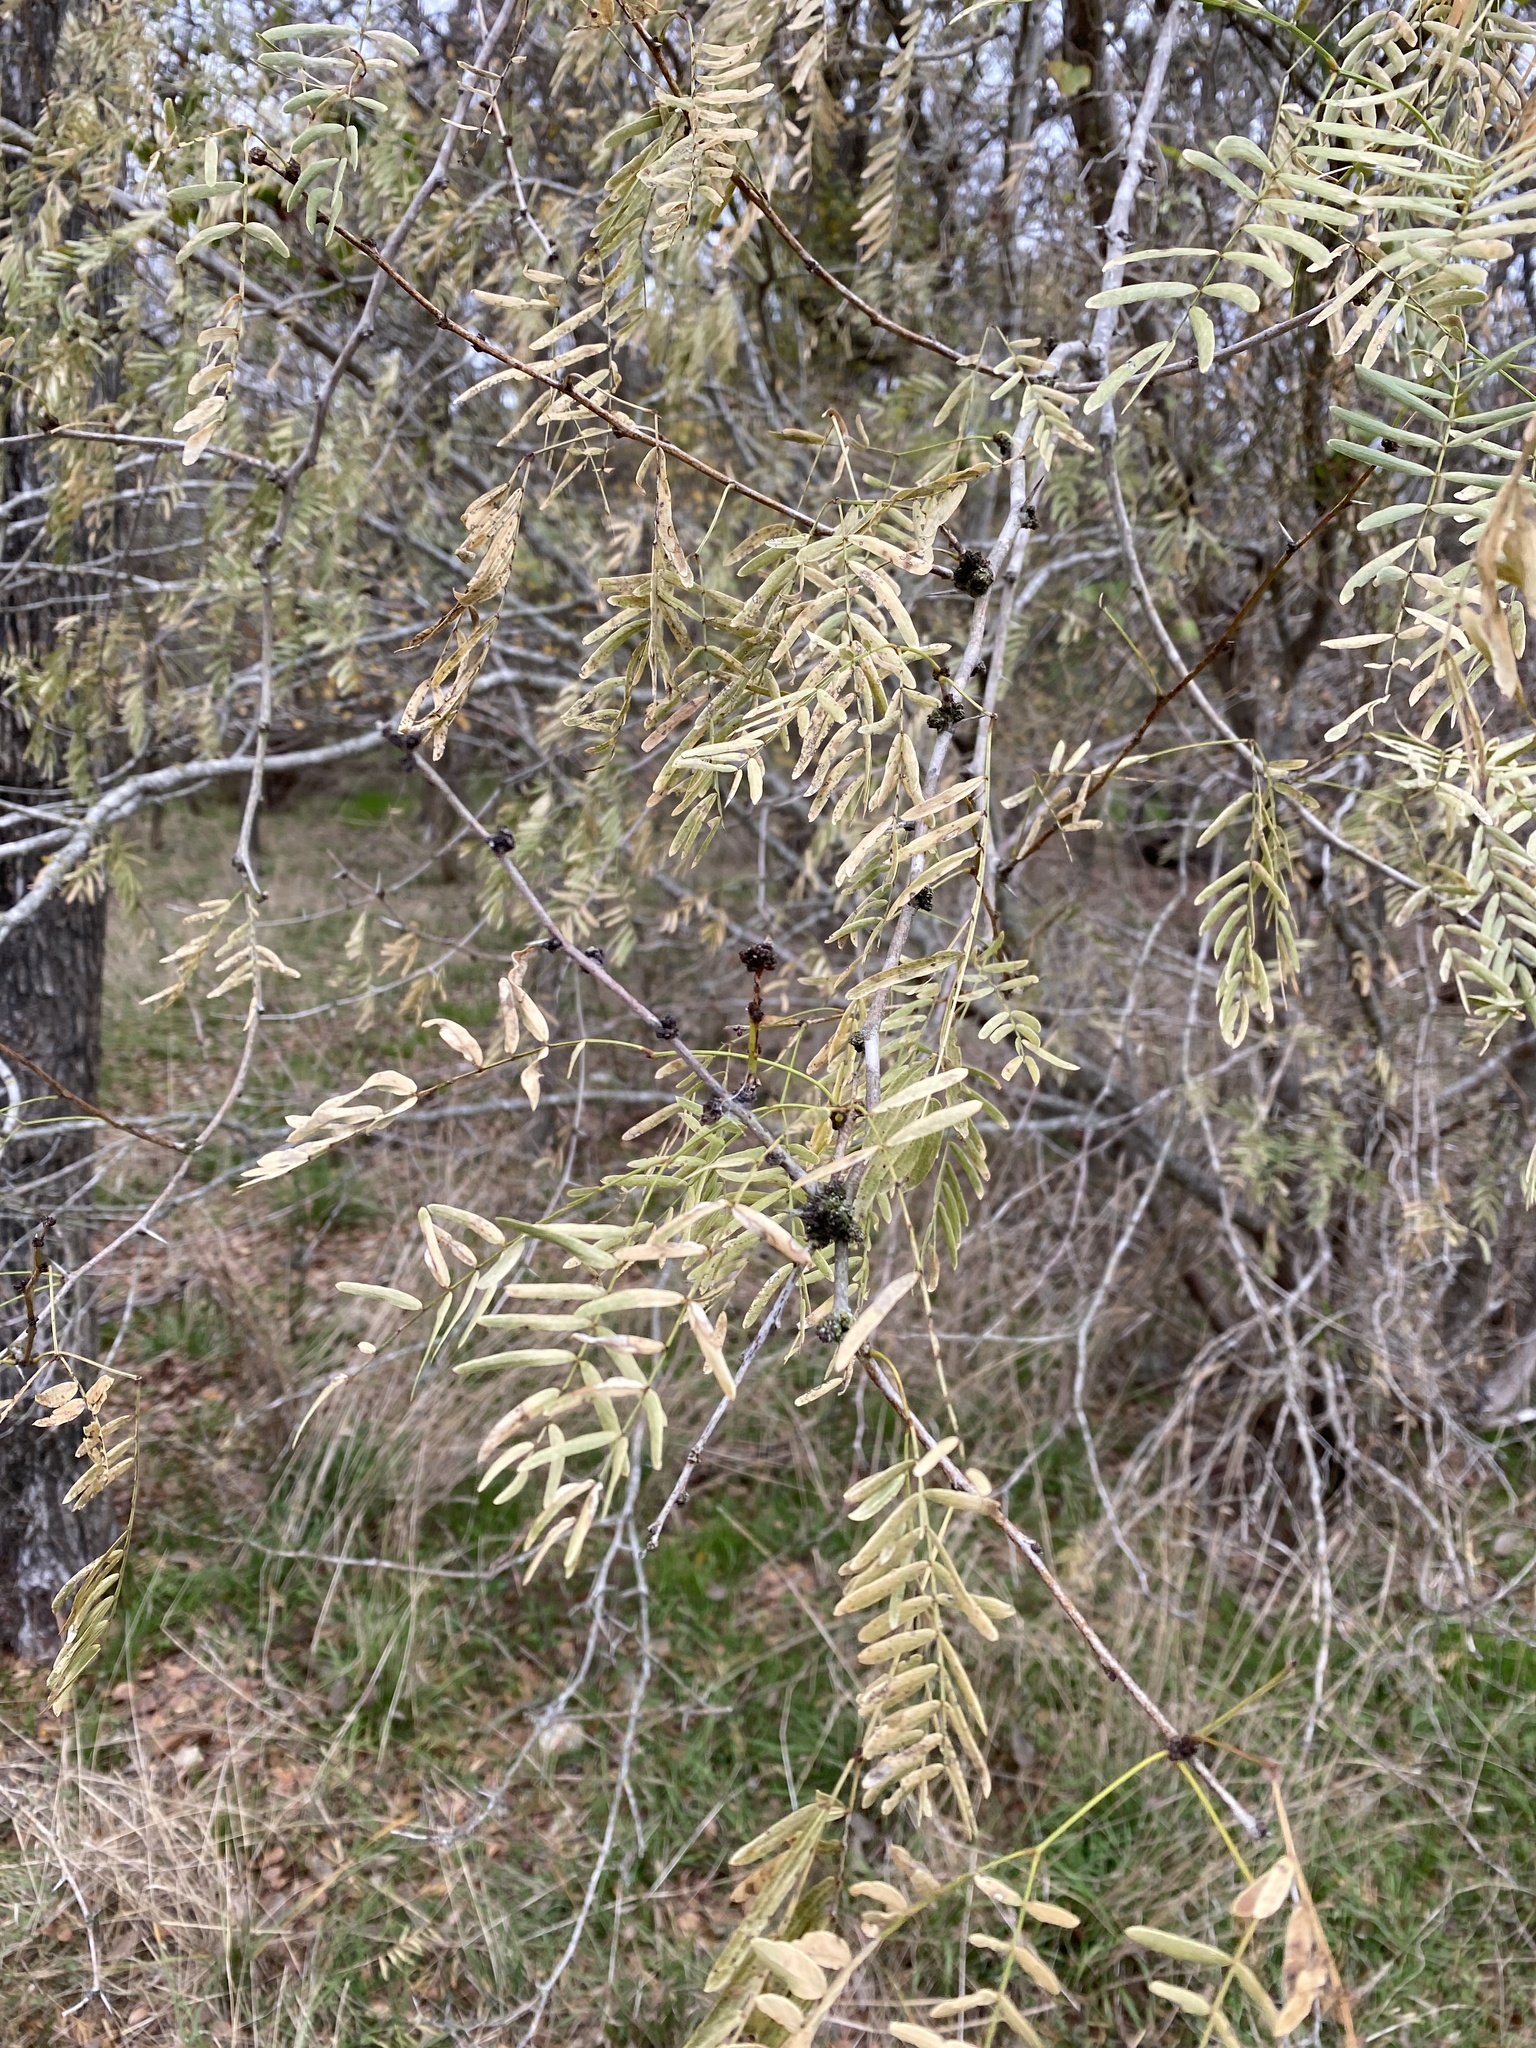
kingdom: Plantae
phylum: Tracheophyta
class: Magnoliopsida
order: Fabales
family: Fabaceae
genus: Prosopis
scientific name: Prosopis glandulosa
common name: Honey mesquite
